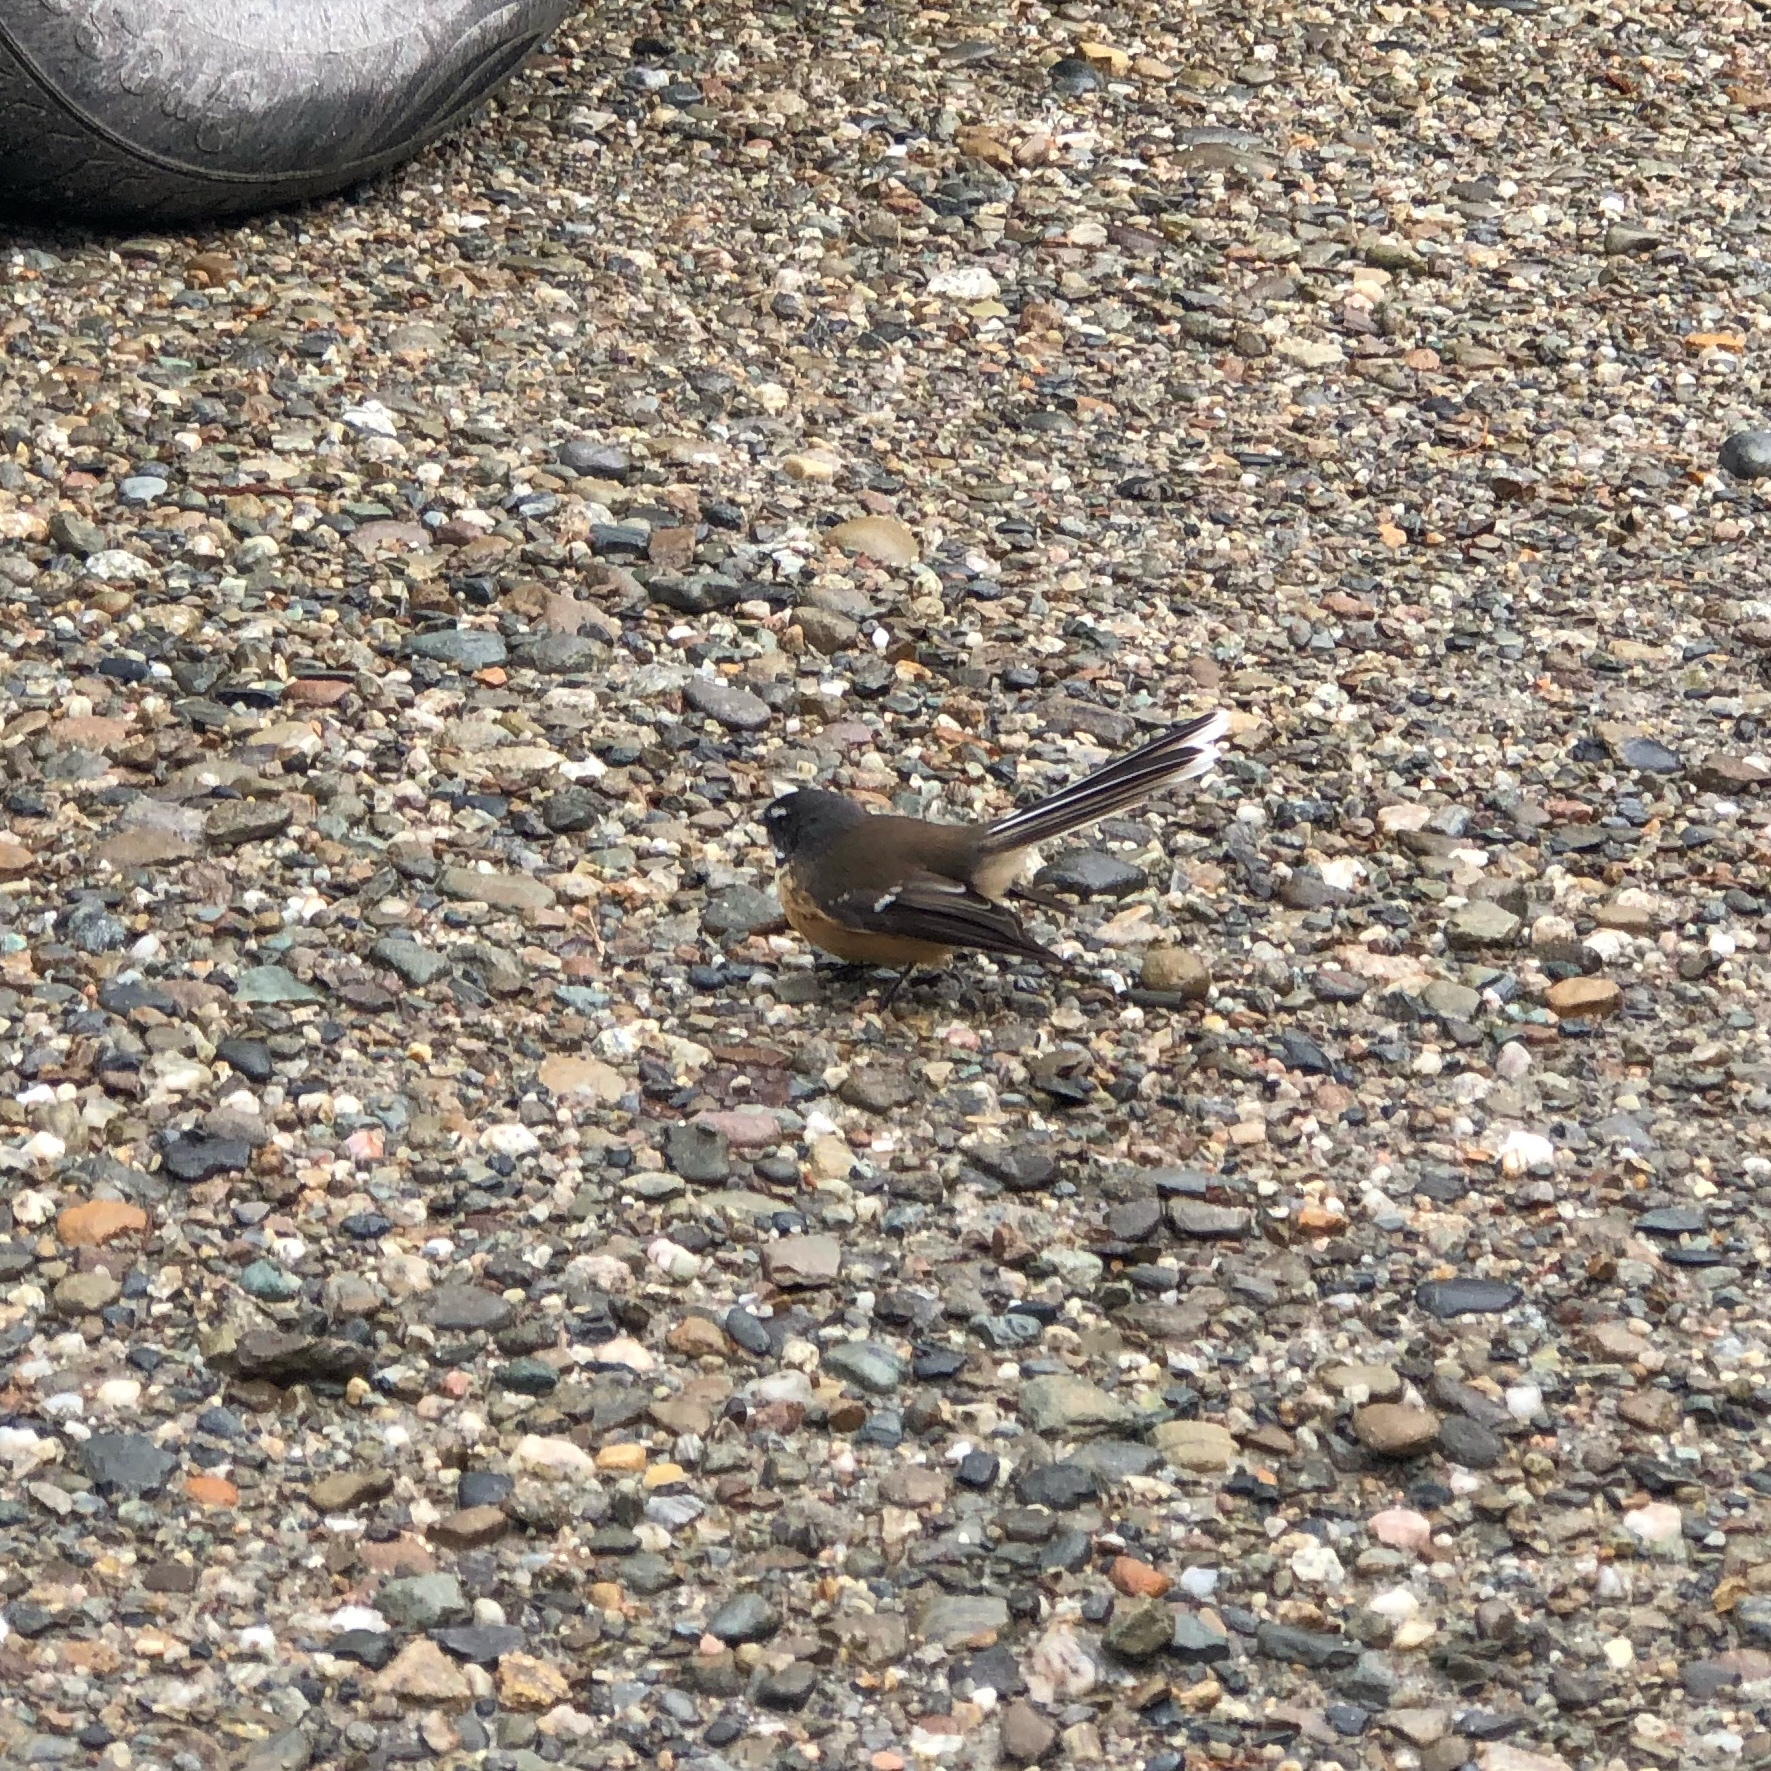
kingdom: Animalia
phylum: Chordata
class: Aves
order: Passeriformes
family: Rhipiduridae
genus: Rhipidura
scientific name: Rhipidura fuliginosa
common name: New zealand fantail
